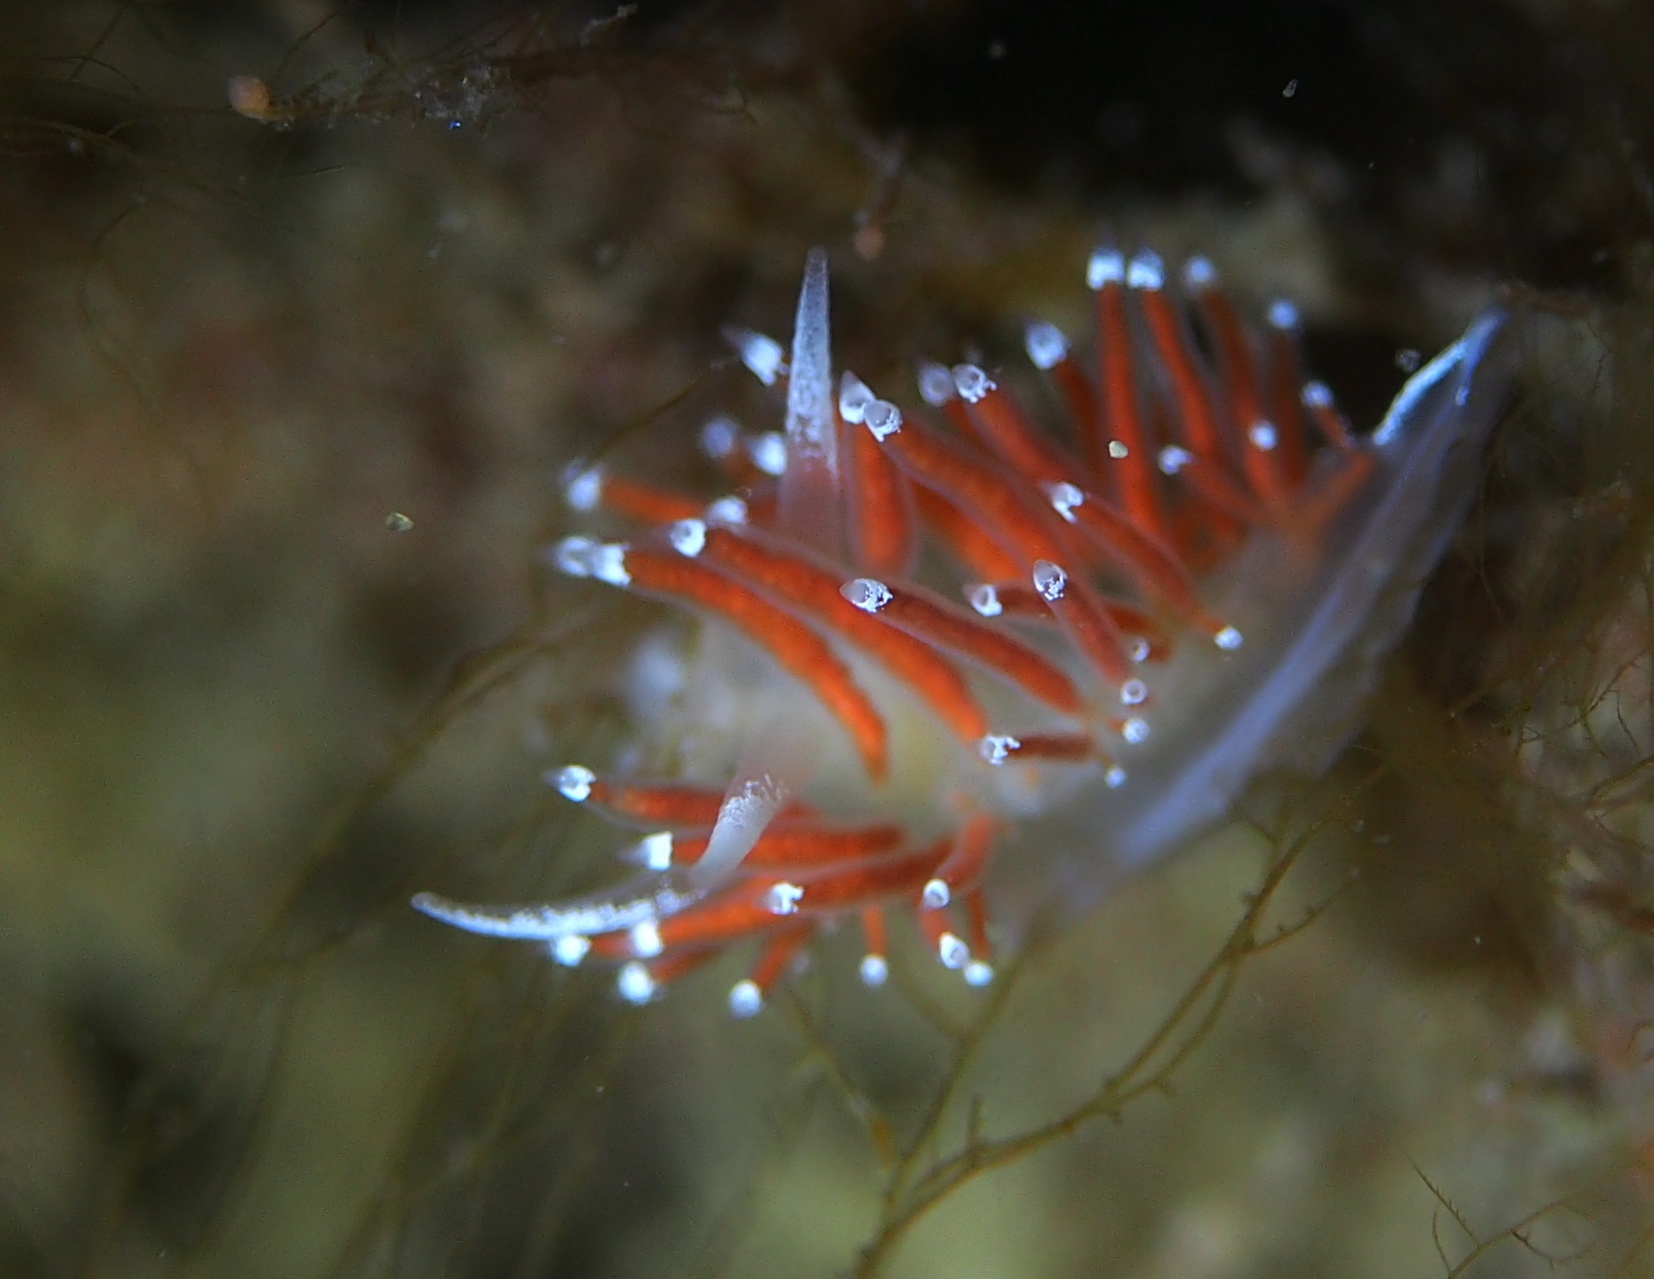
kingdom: Animalia
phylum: Mollusca
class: Gastropoda
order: Nudibranchia
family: Coryphellidae
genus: Coryphella
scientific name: Coryphella gracilis
